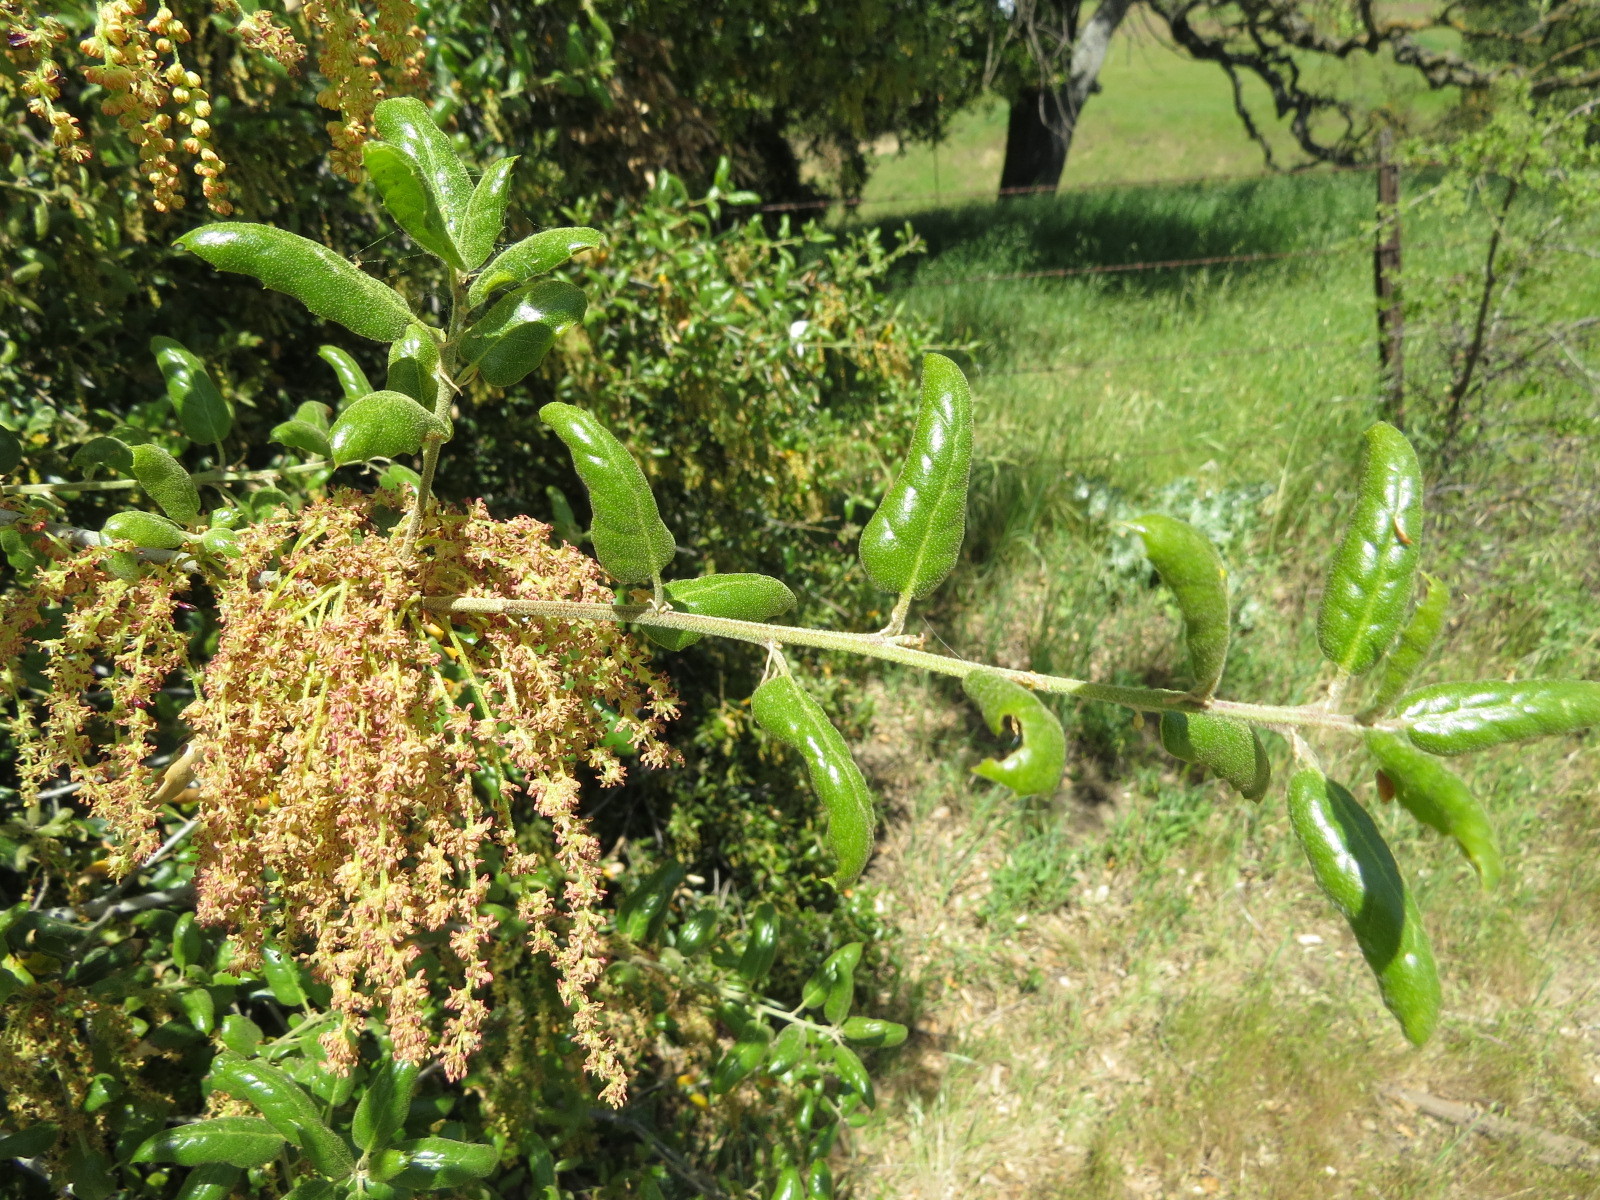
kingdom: Plantae
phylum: Tracheophyta
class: Magnoliopsida
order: Fagales
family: Fagaceae
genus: Quercus
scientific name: Quercus agrifolia
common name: California live oak
